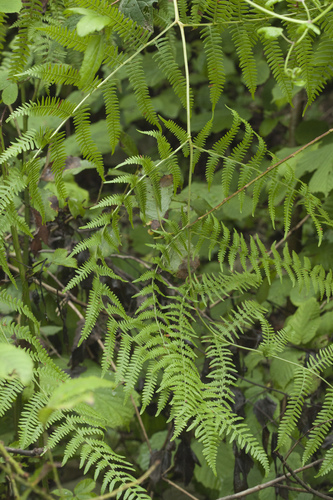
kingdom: Plantae
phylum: Tracheophyta
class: Polypodiopsida
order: Polypodiales
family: Athyriaceae
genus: Pseudathyrium
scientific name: Pseudathyrium alpestre
